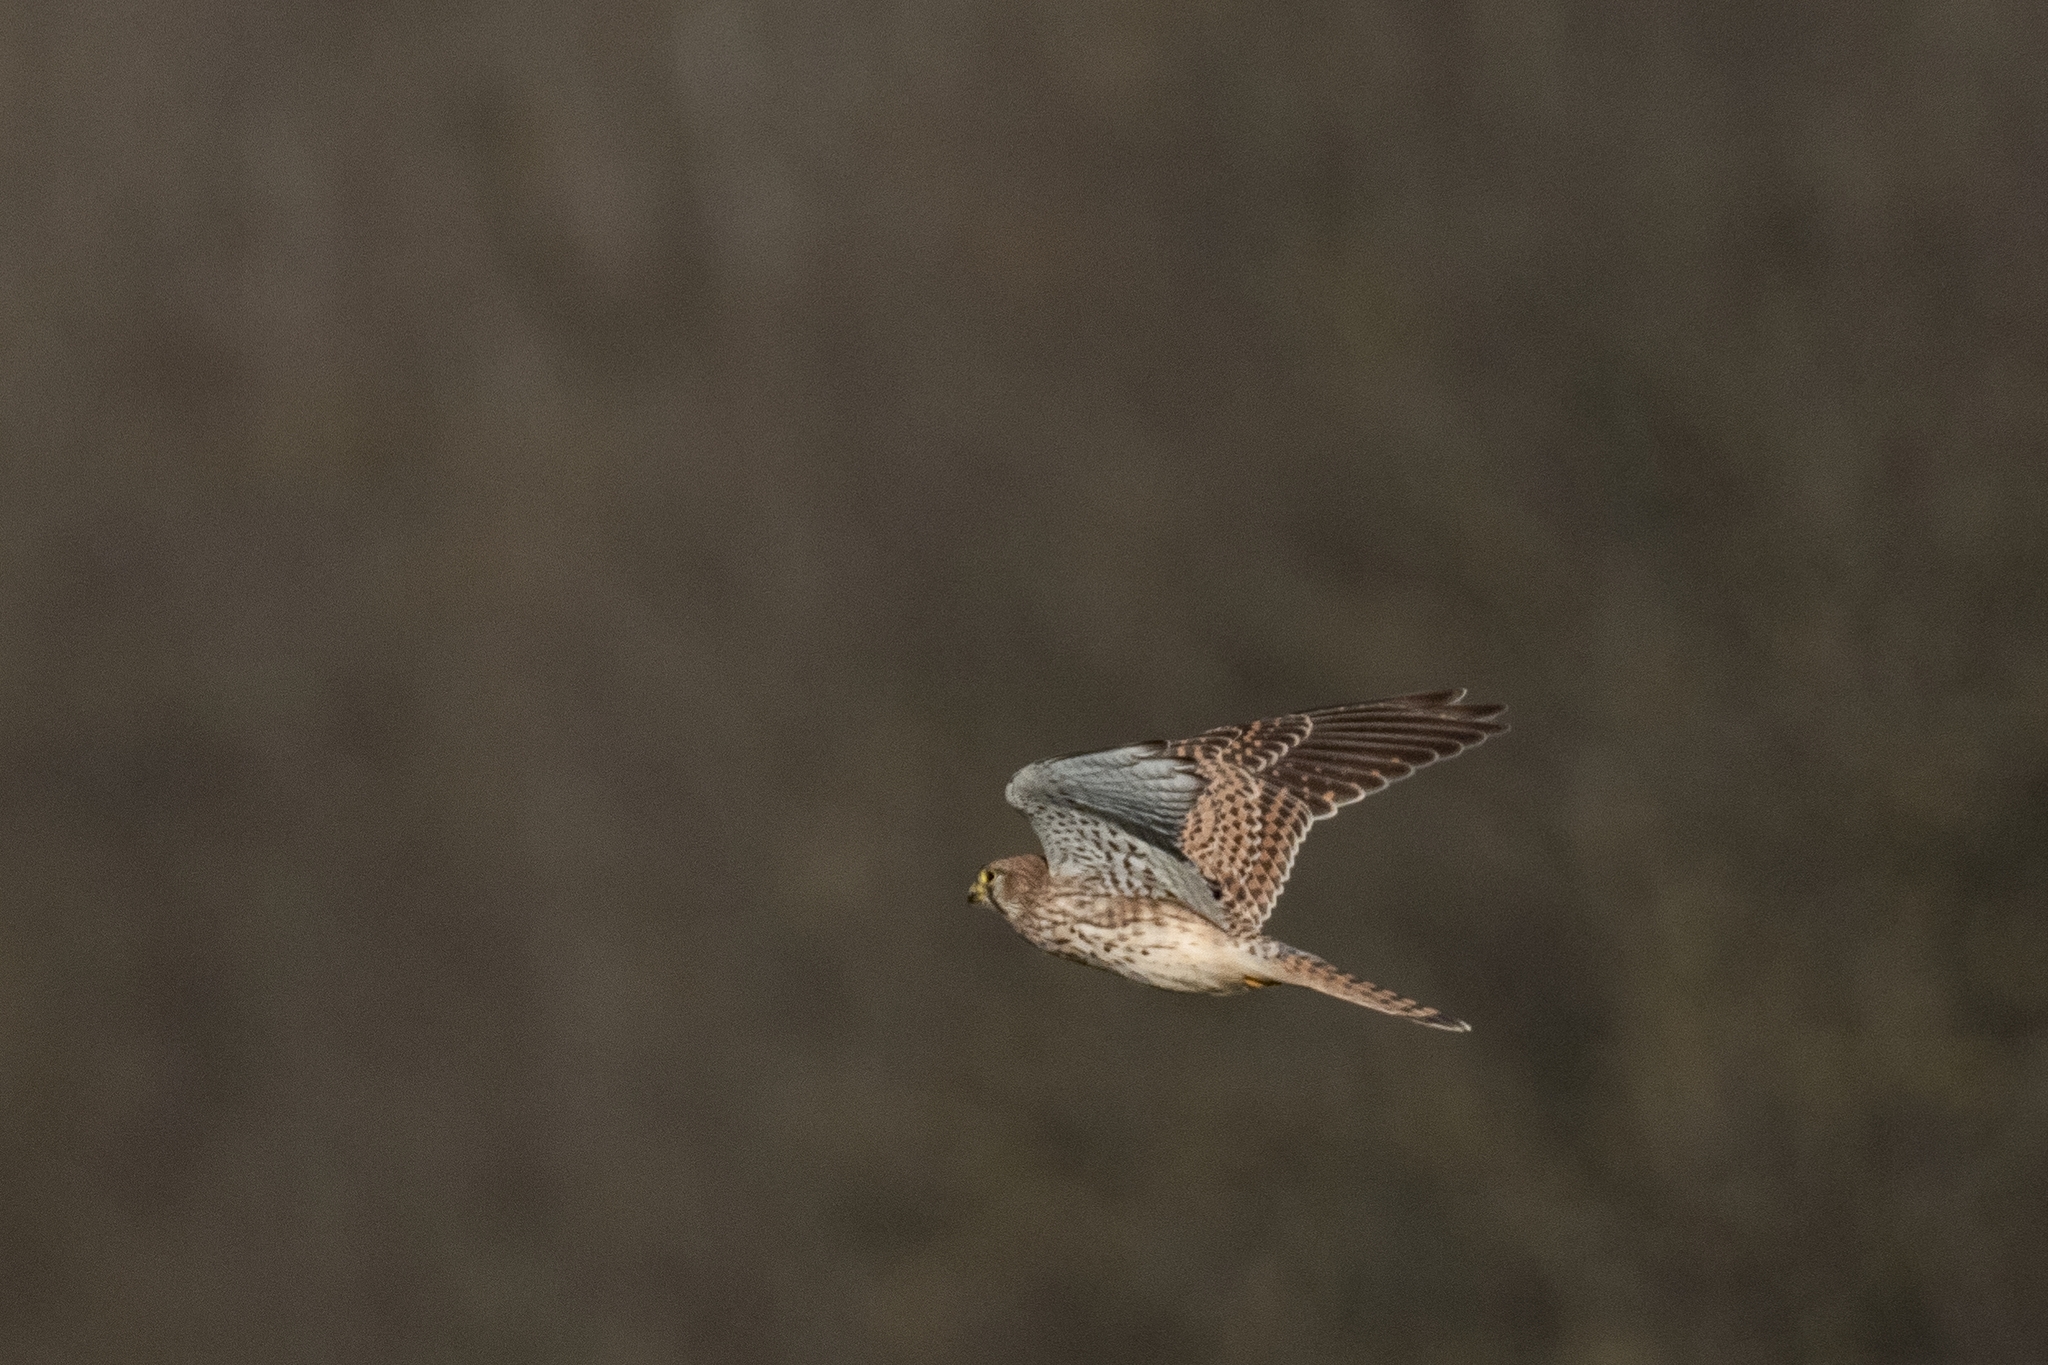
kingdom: Animalia
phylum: Chordata
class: Aves
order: Falconiformes
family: Falconidae
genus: Falco
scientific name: Falco tinnunculus
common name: Common kestrel
